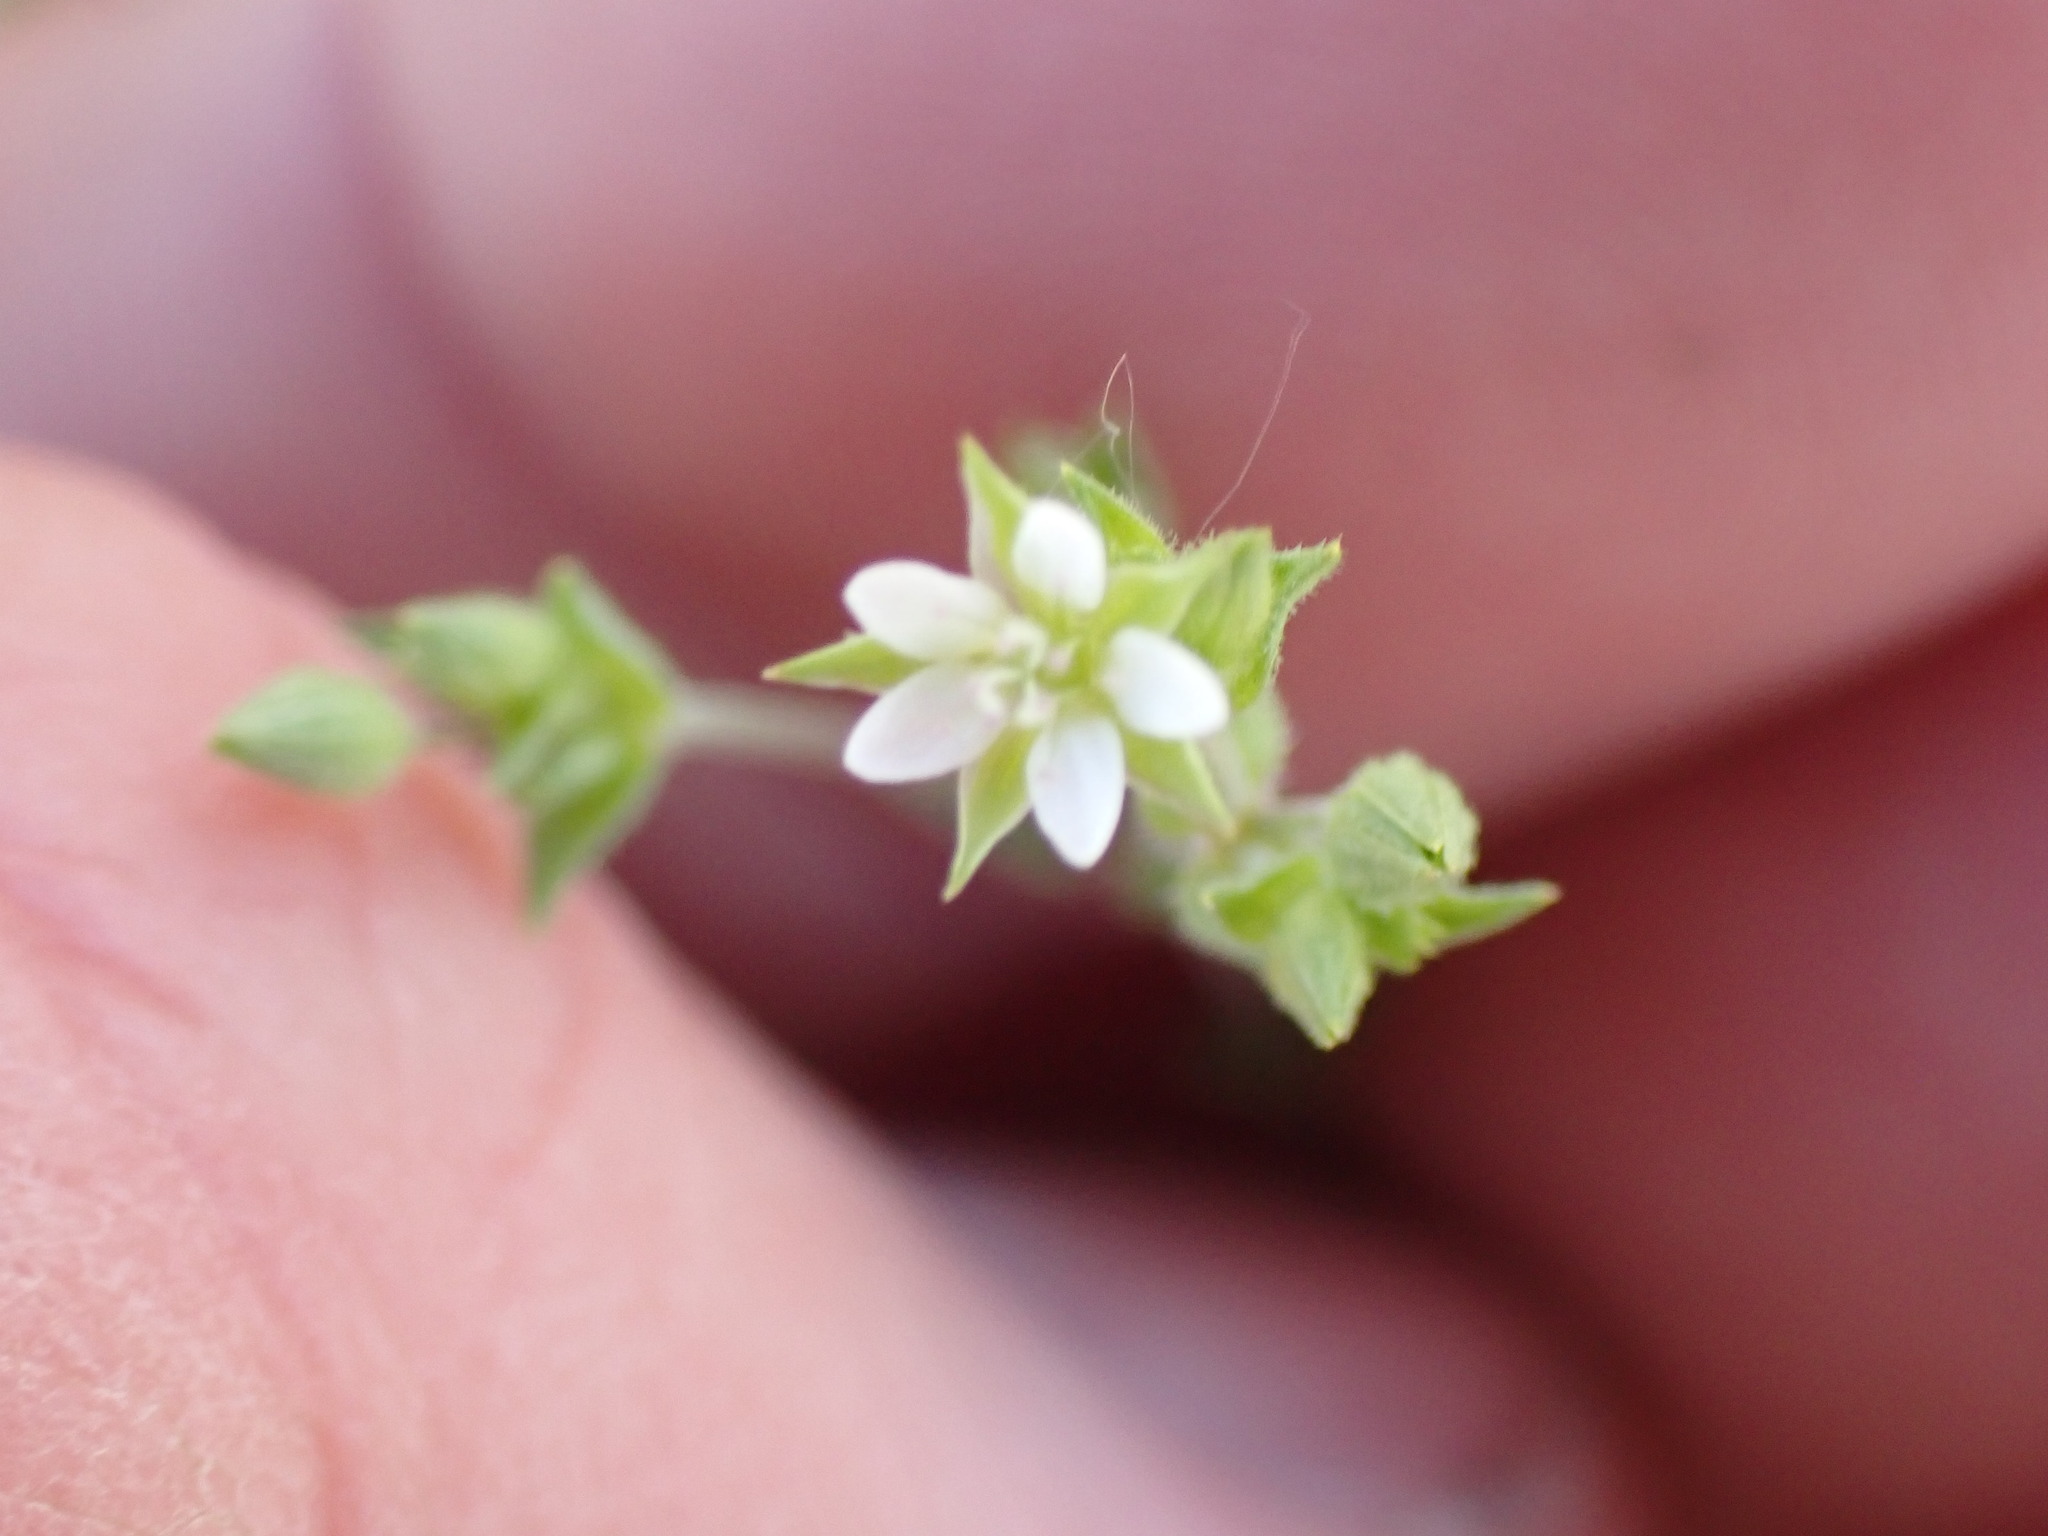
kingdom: Plantae
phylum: Tracheophyta
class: Magnoliopsida
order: Caryophyllales
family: Caryophyllaceae
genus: Arenaria
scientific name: Arenaria serpyllifolia
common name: Thyme-leaved sandwort
